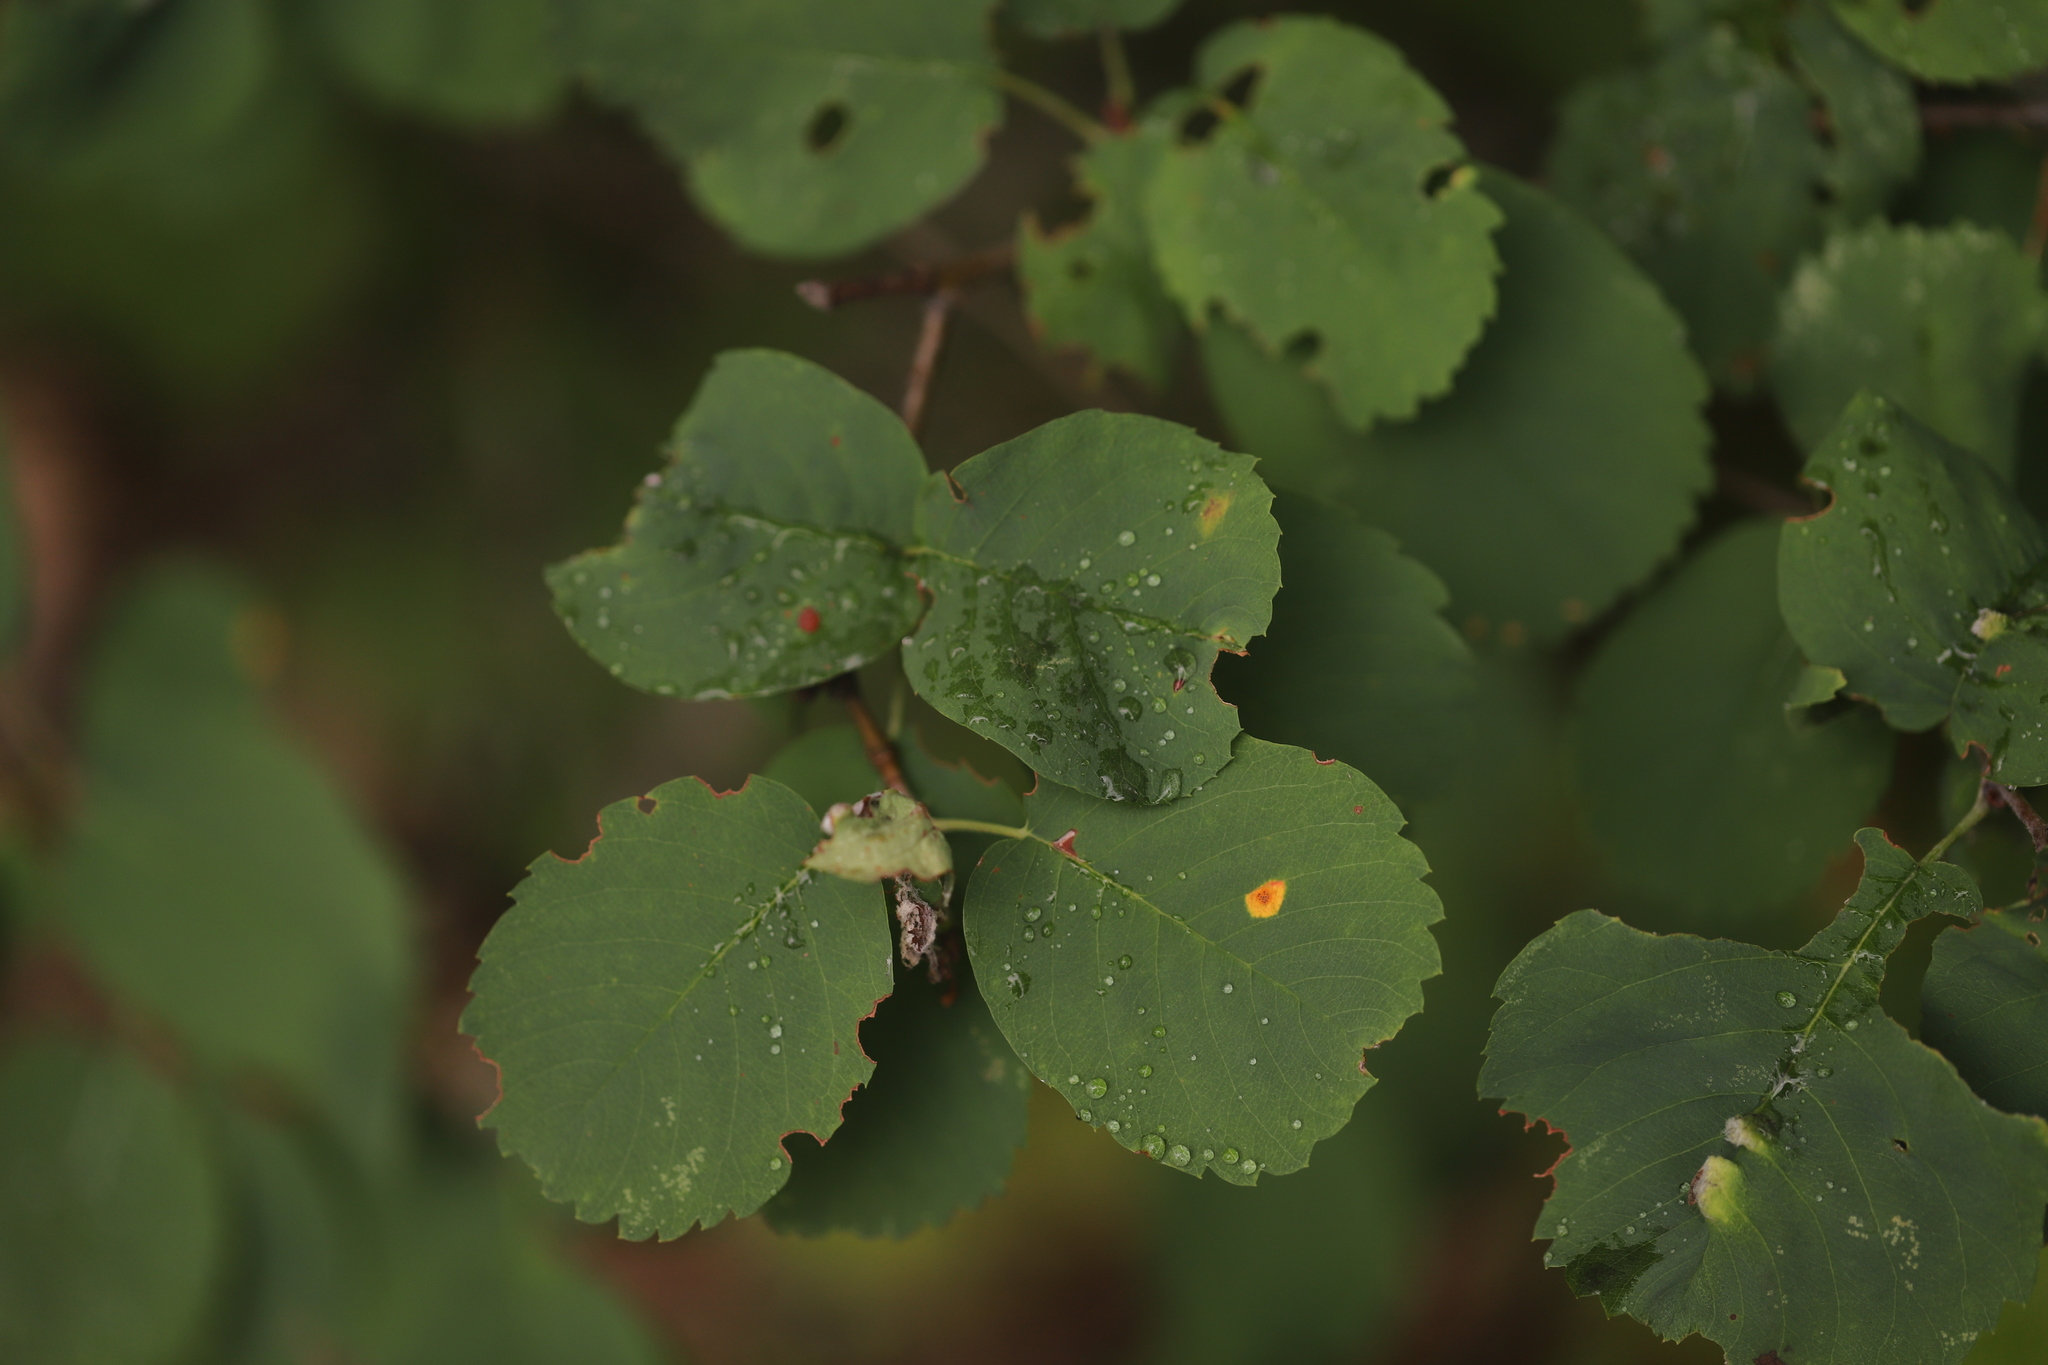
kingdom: Plantae
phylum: Tracheophyta
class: Magnoliopsida
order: Rosales
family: Rosaceae
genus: Amelanchier
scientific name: Amelanchier alnifolia
